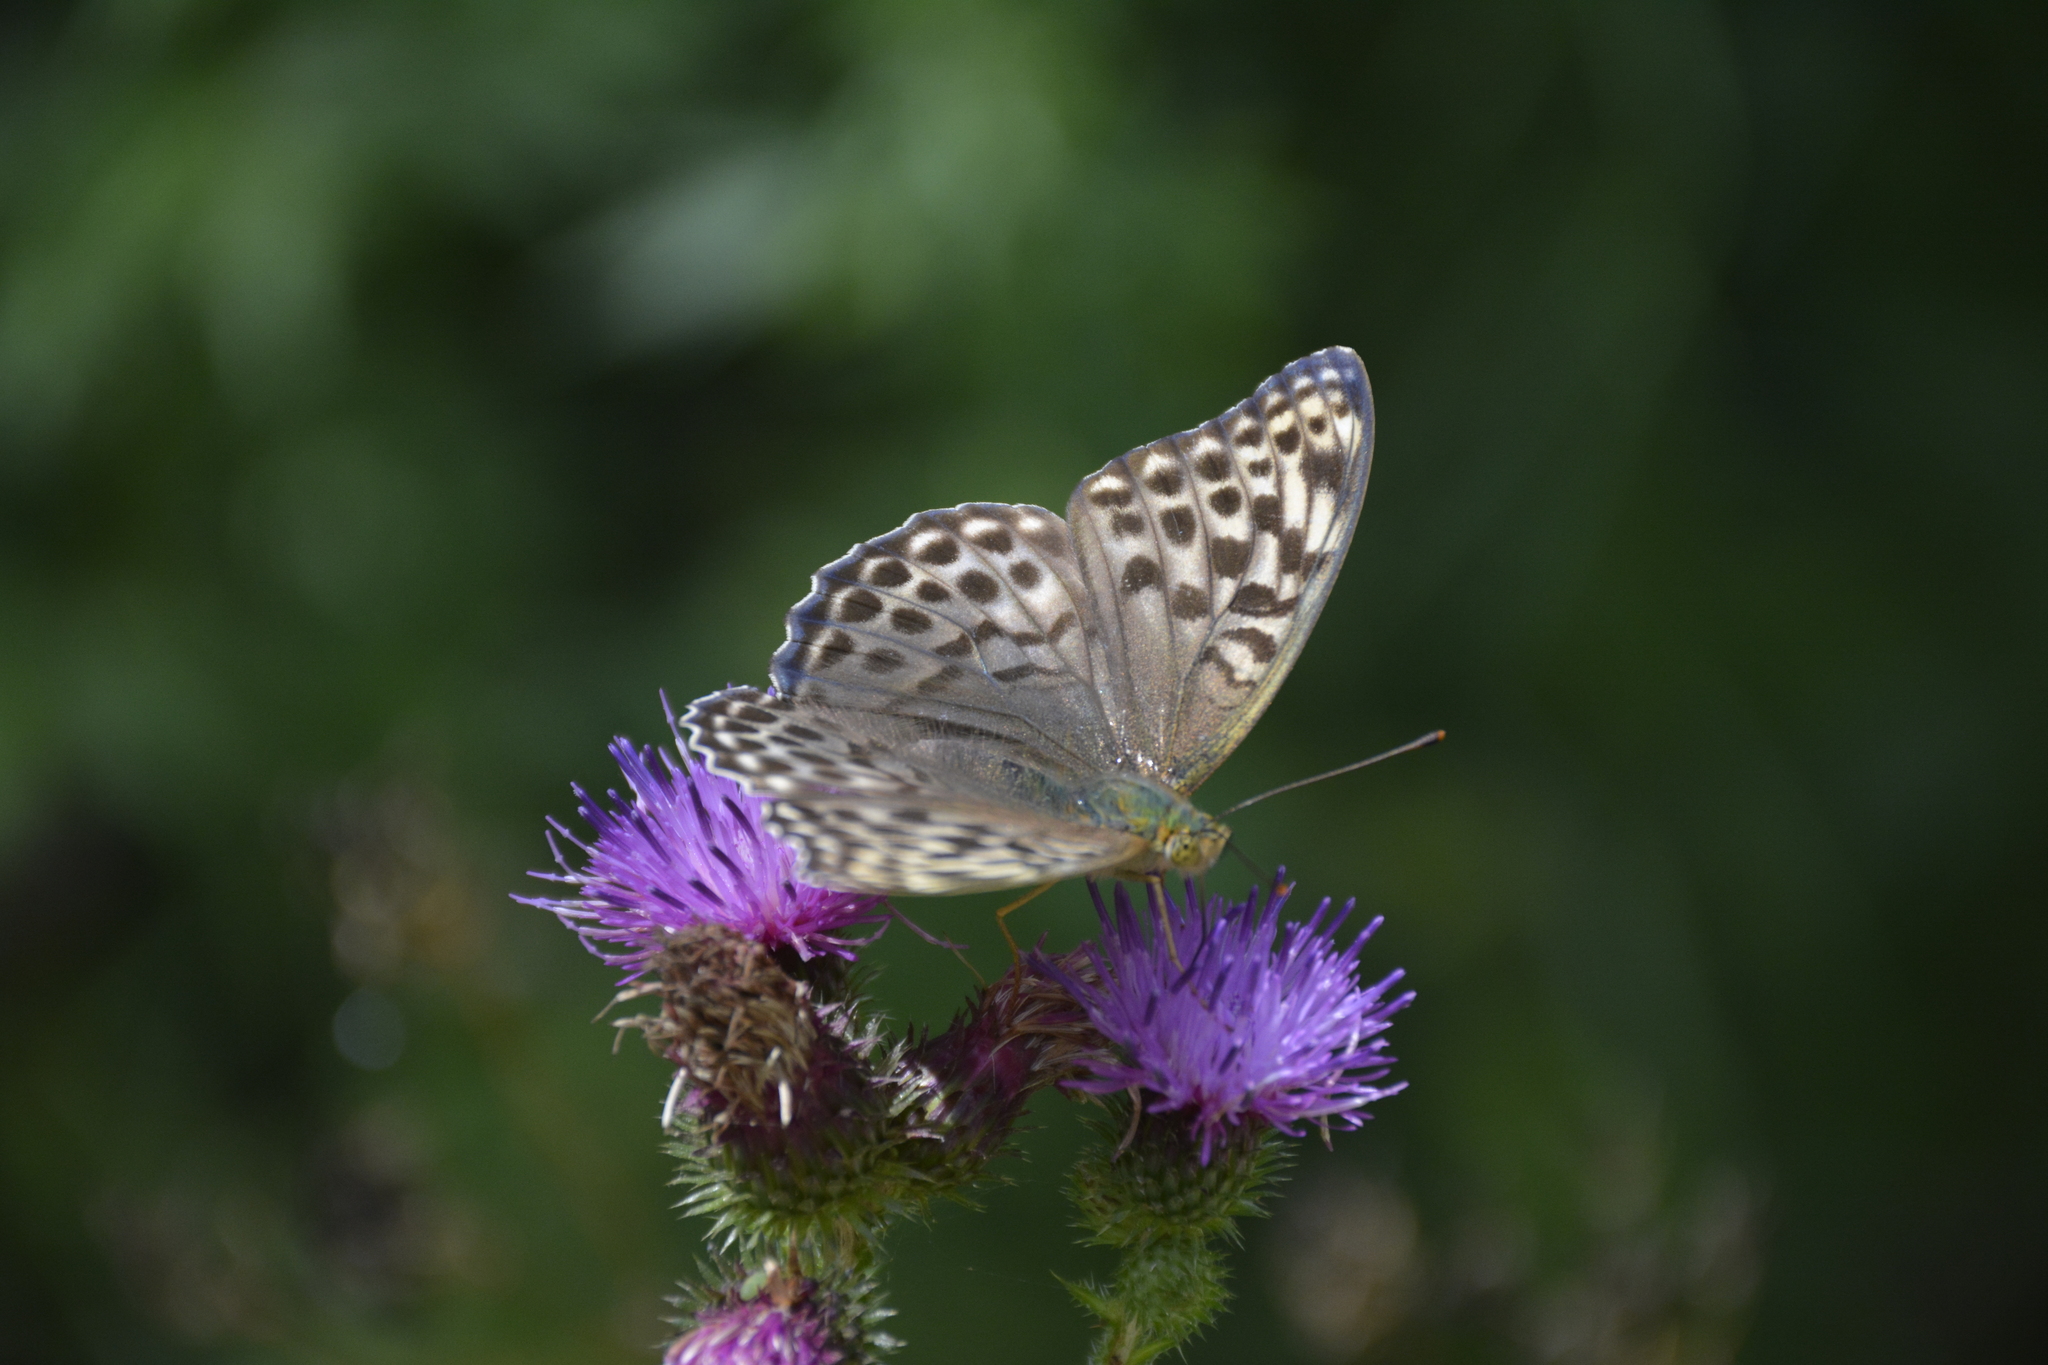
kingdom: Animalia
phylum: Arthropoda
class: Insecta
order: Lepidoptera
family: Nymphalidae
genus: Argynnis
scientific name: Argynnis paphia
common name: Silver-washed fritillary
